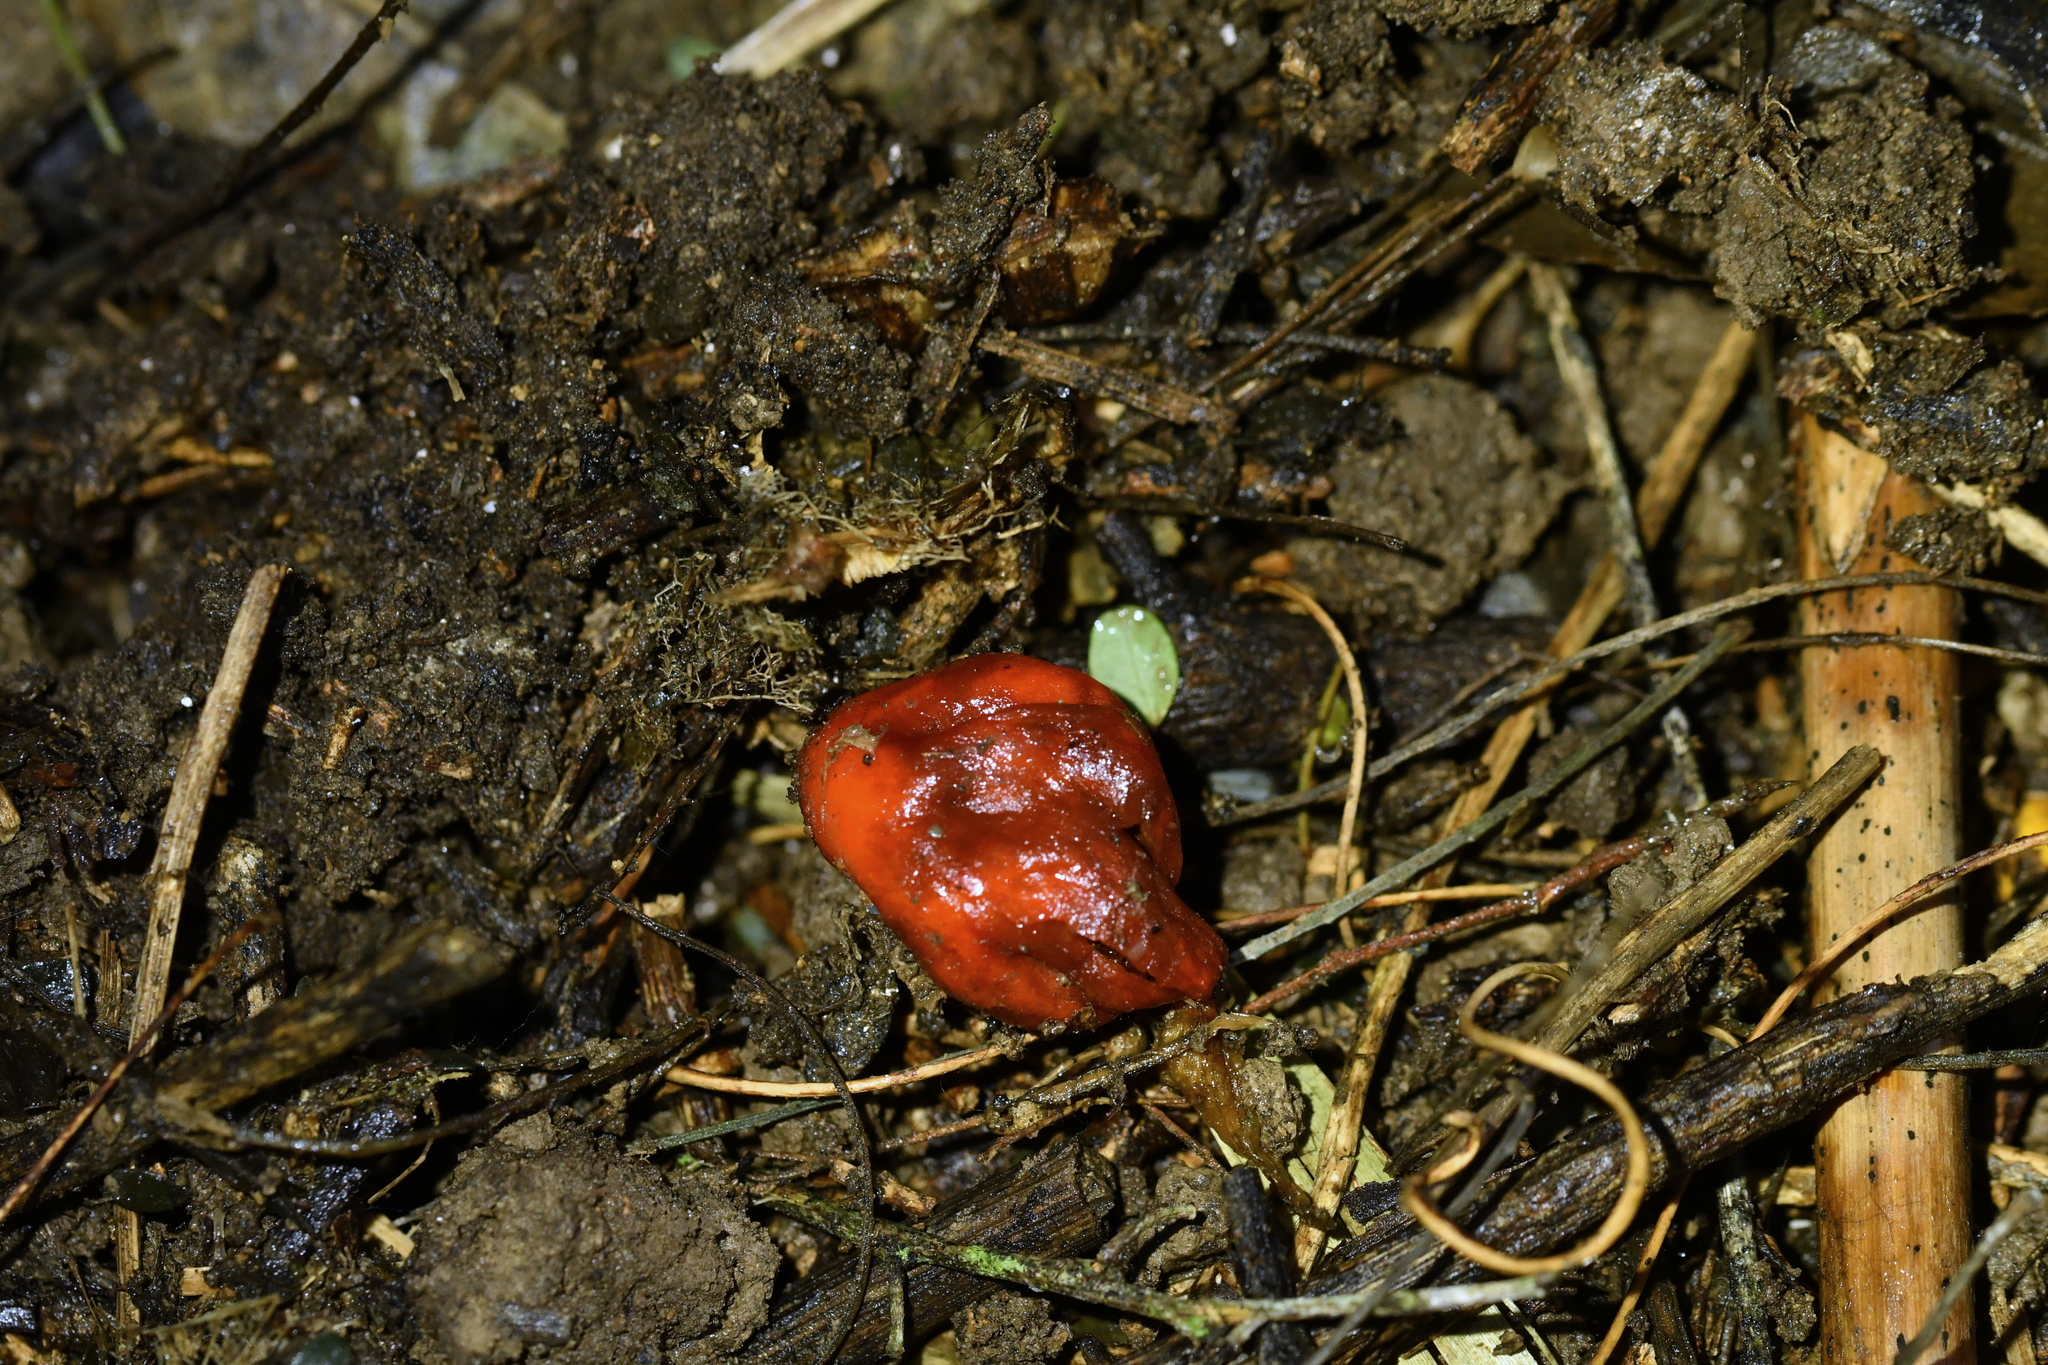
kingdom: Fungi
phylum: Basidiomycota
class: Agaricomycetes
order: Agaricales
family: Strophariaceae
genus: Leratiomyces
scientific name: Leratiomyces erythrocephalus
